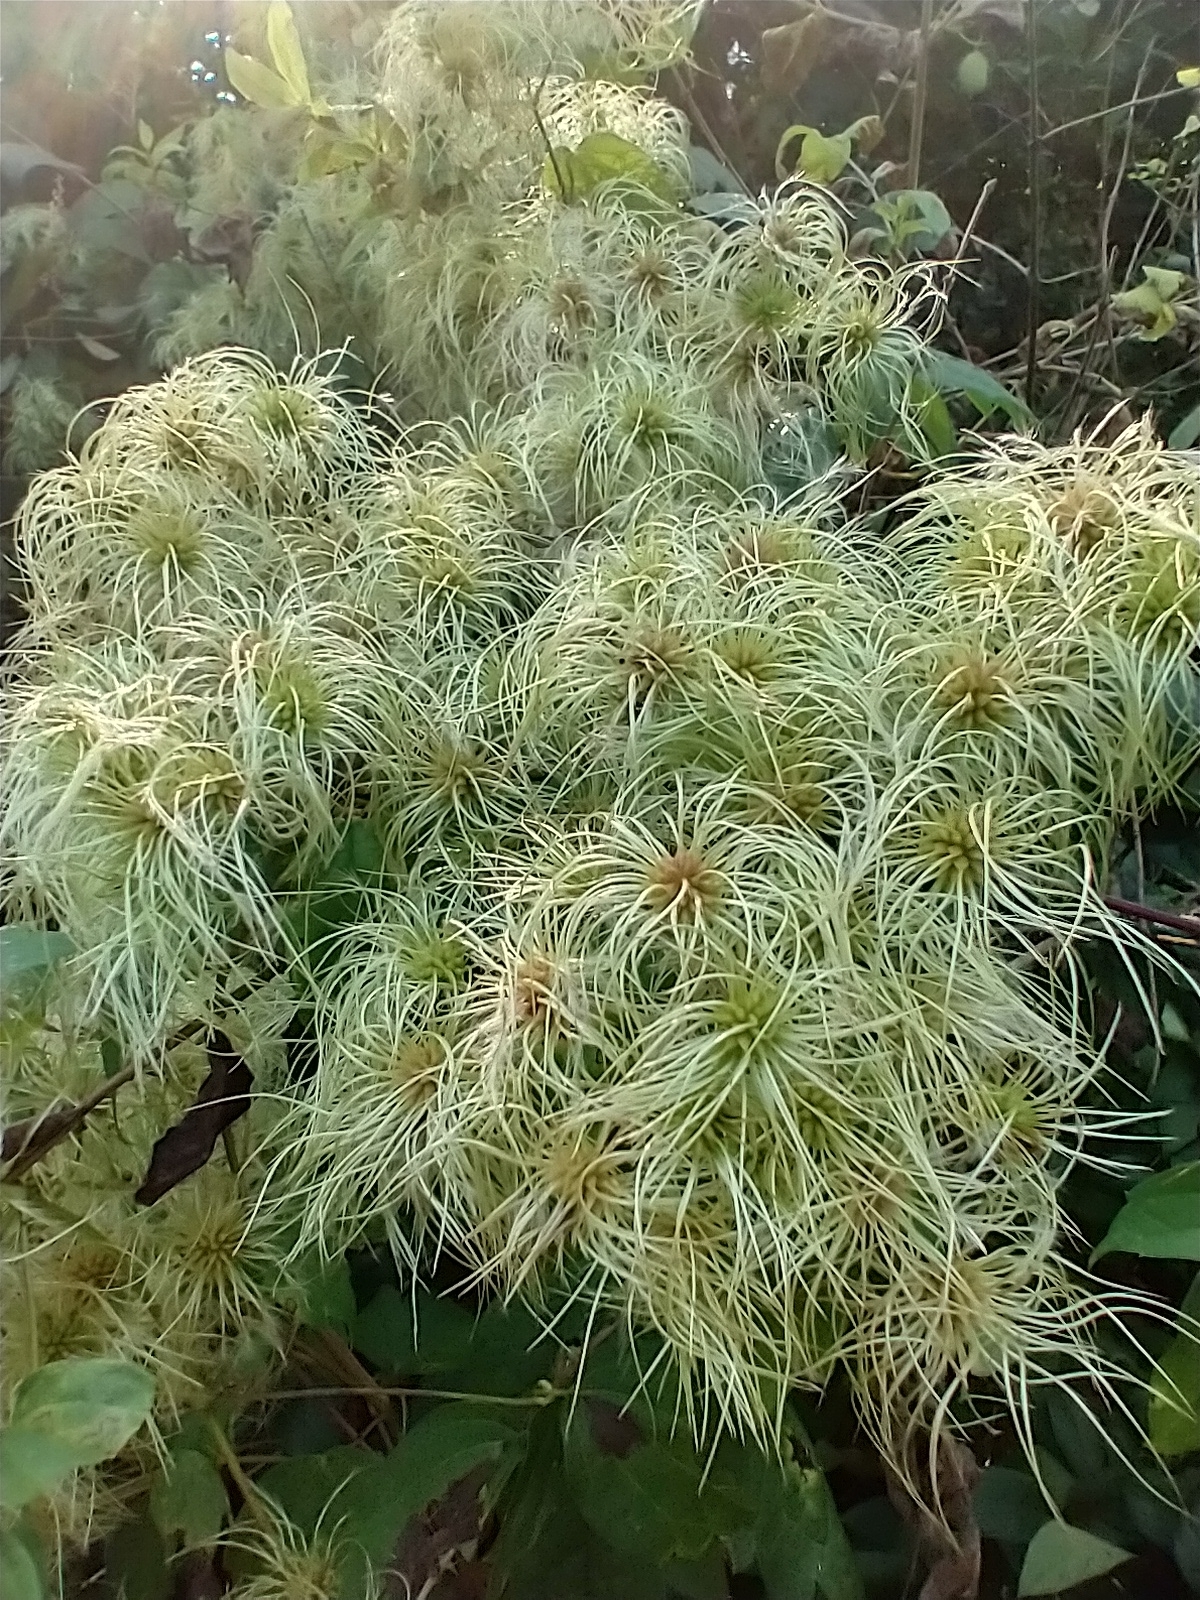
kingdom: Plantae
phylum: Tracheophyta
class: Magnoliopsida
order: Ranunculales
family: Ranunculaceae
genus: Clematis
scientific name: Clematis virginiana
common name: Virgin's-bower
